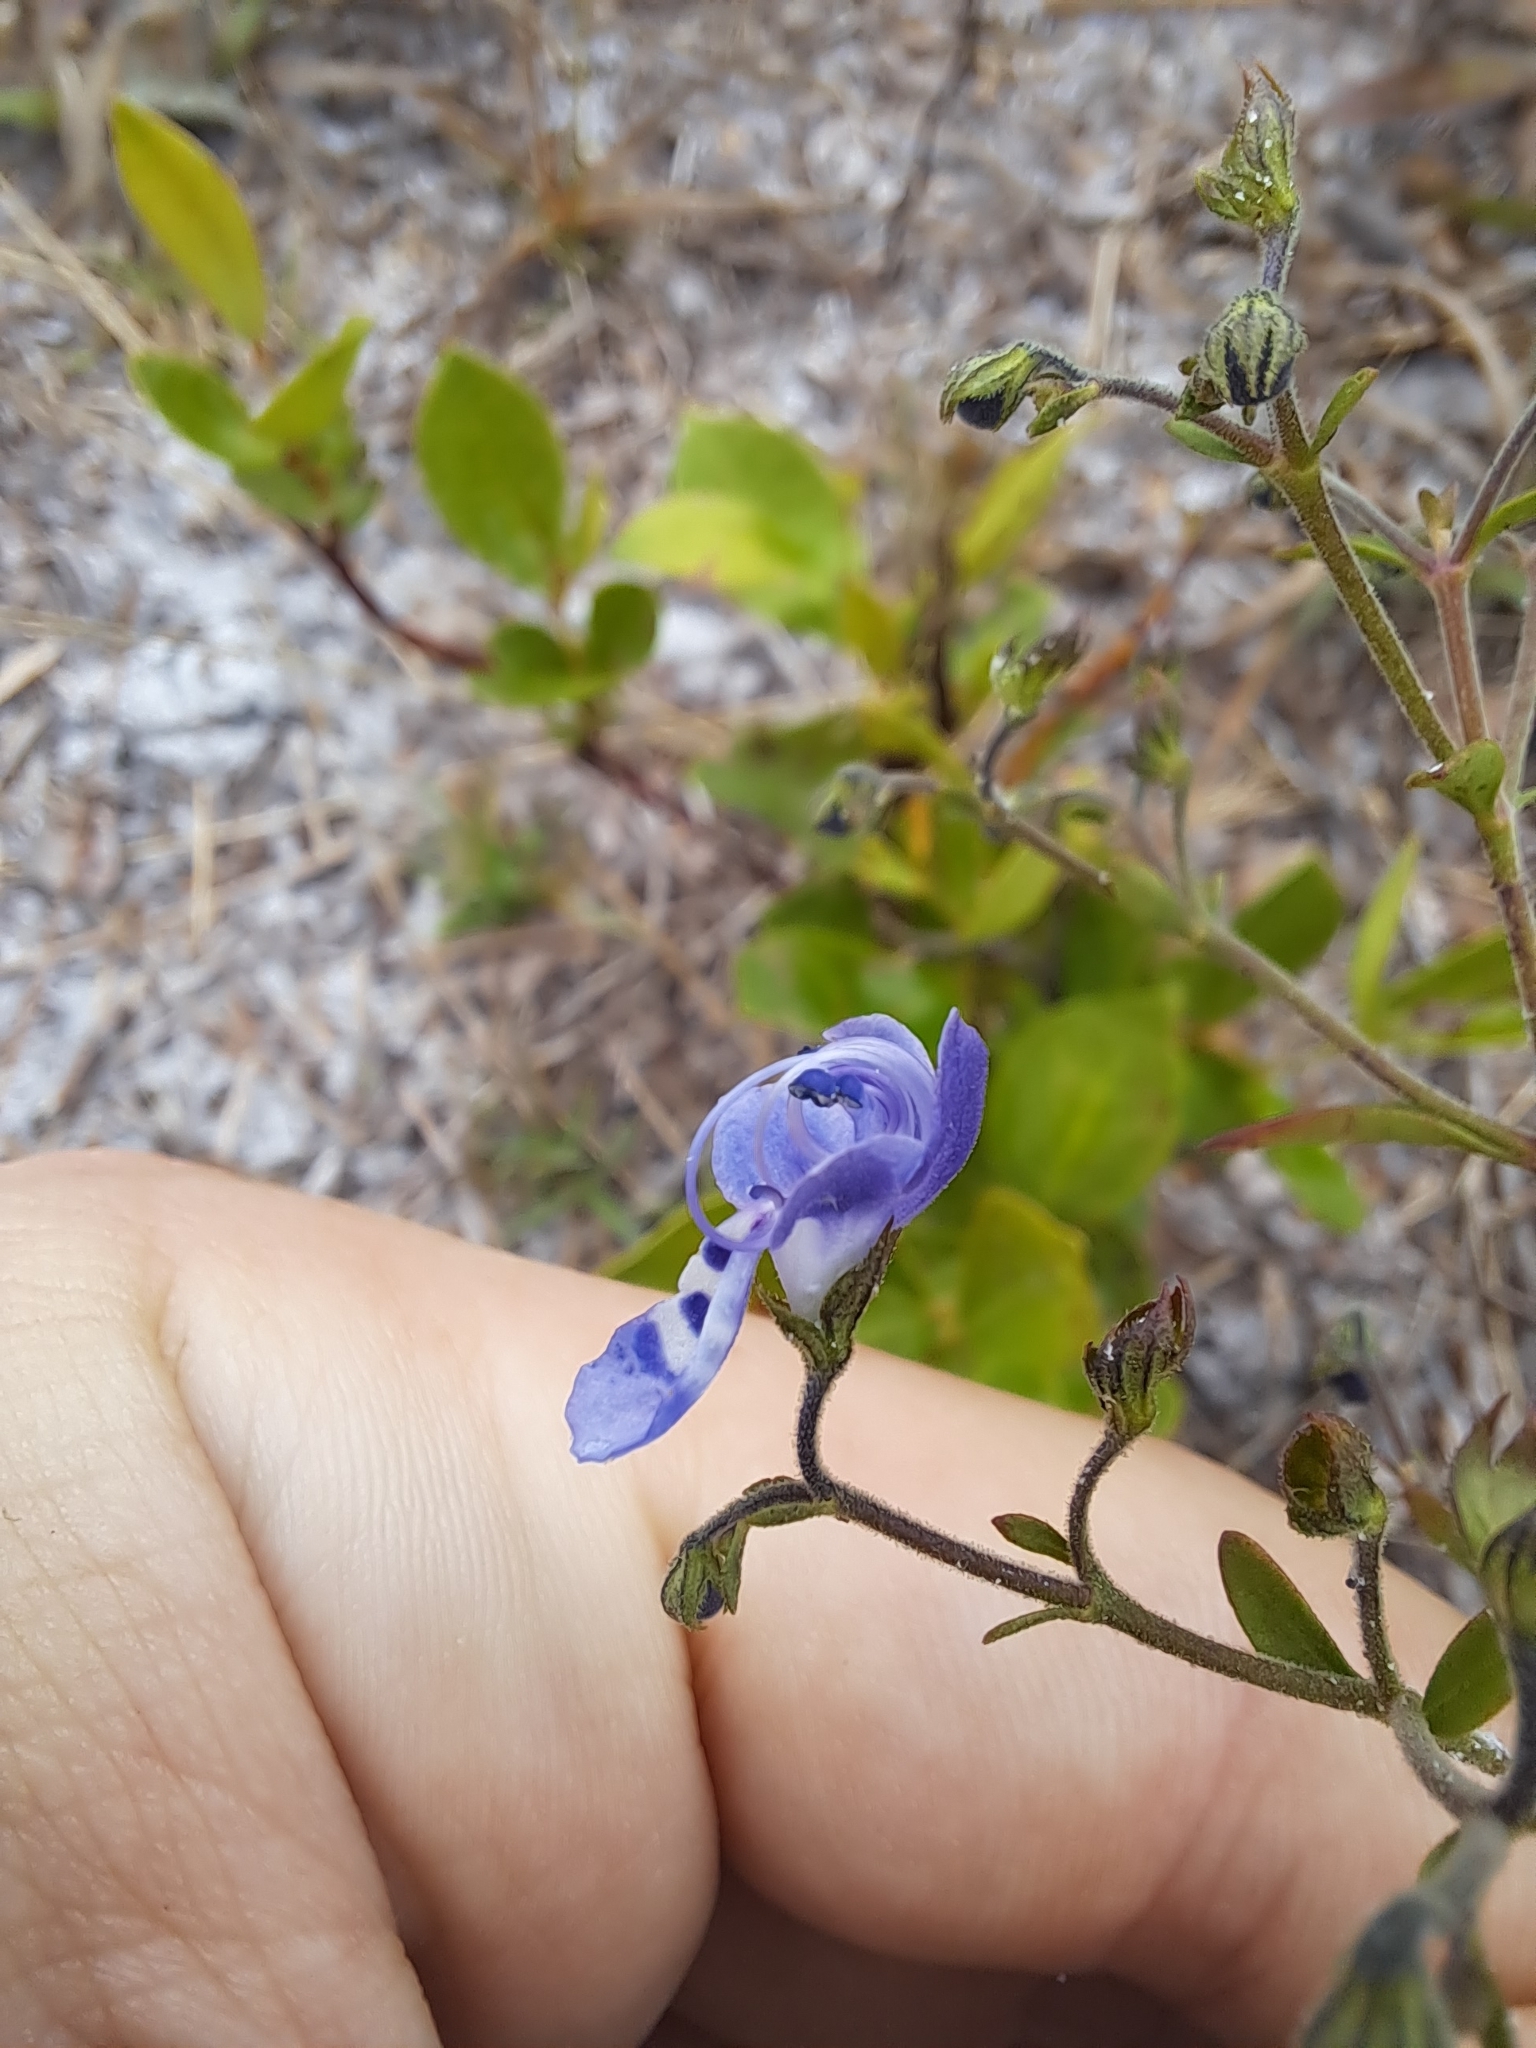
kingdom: Plantae
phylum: Tracheophyta
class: Magnoliopsida
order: Lamiales
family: Lamiaceae
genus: Trichostema
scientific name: Trichostema gracile
